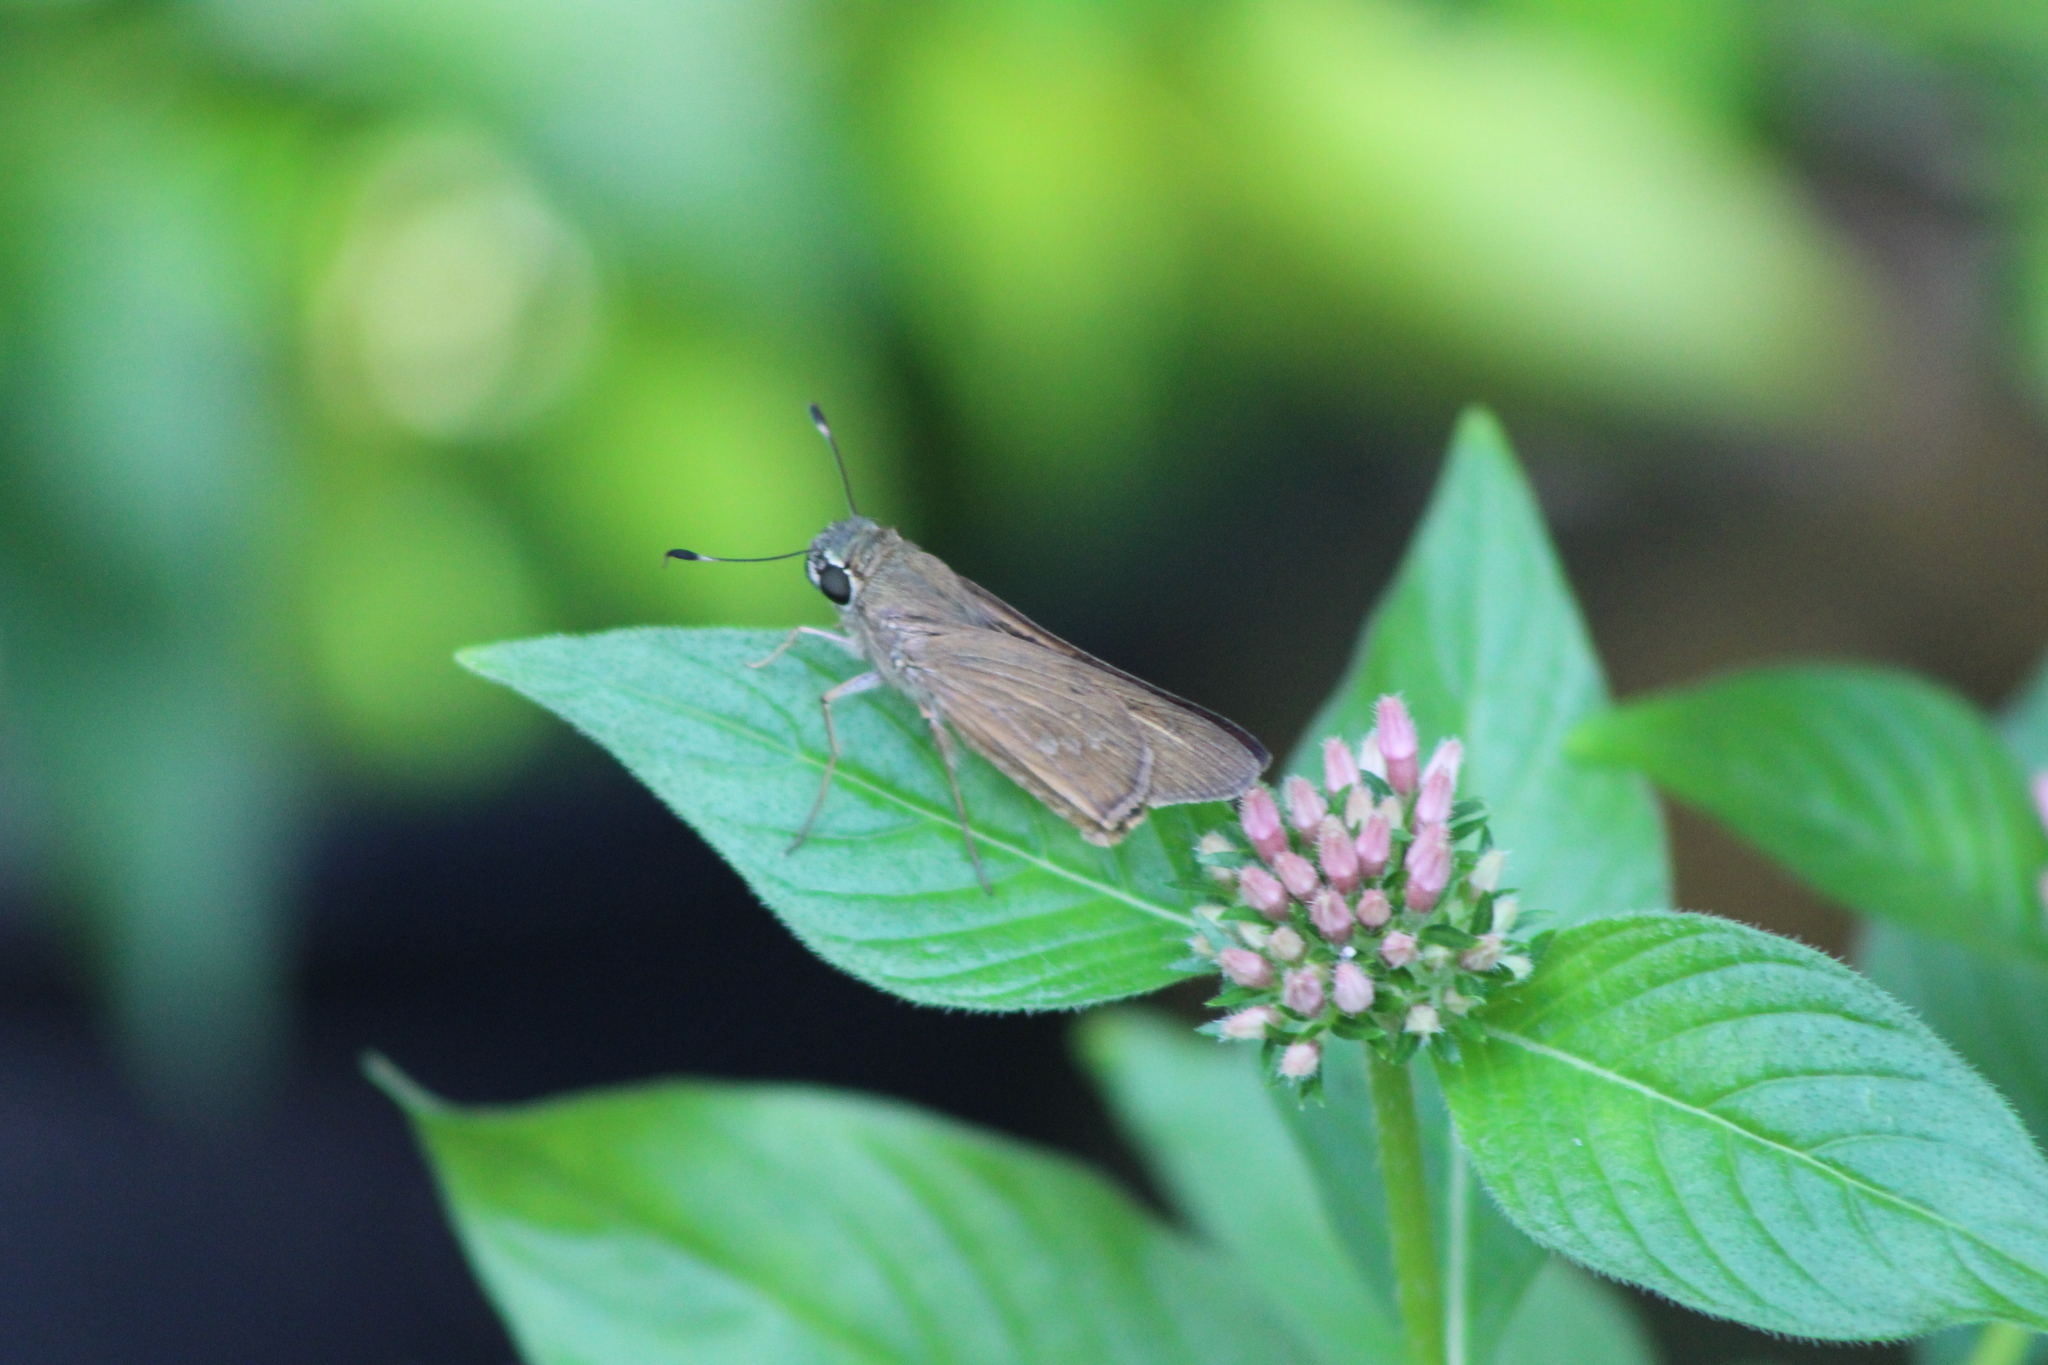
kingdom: Animalia
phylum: Arthropoda
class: Insecta
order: Lepidoptera
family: Hesperiidae
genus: Calpodes
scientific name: Calpodes ethlius
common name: Brazilian skipper
